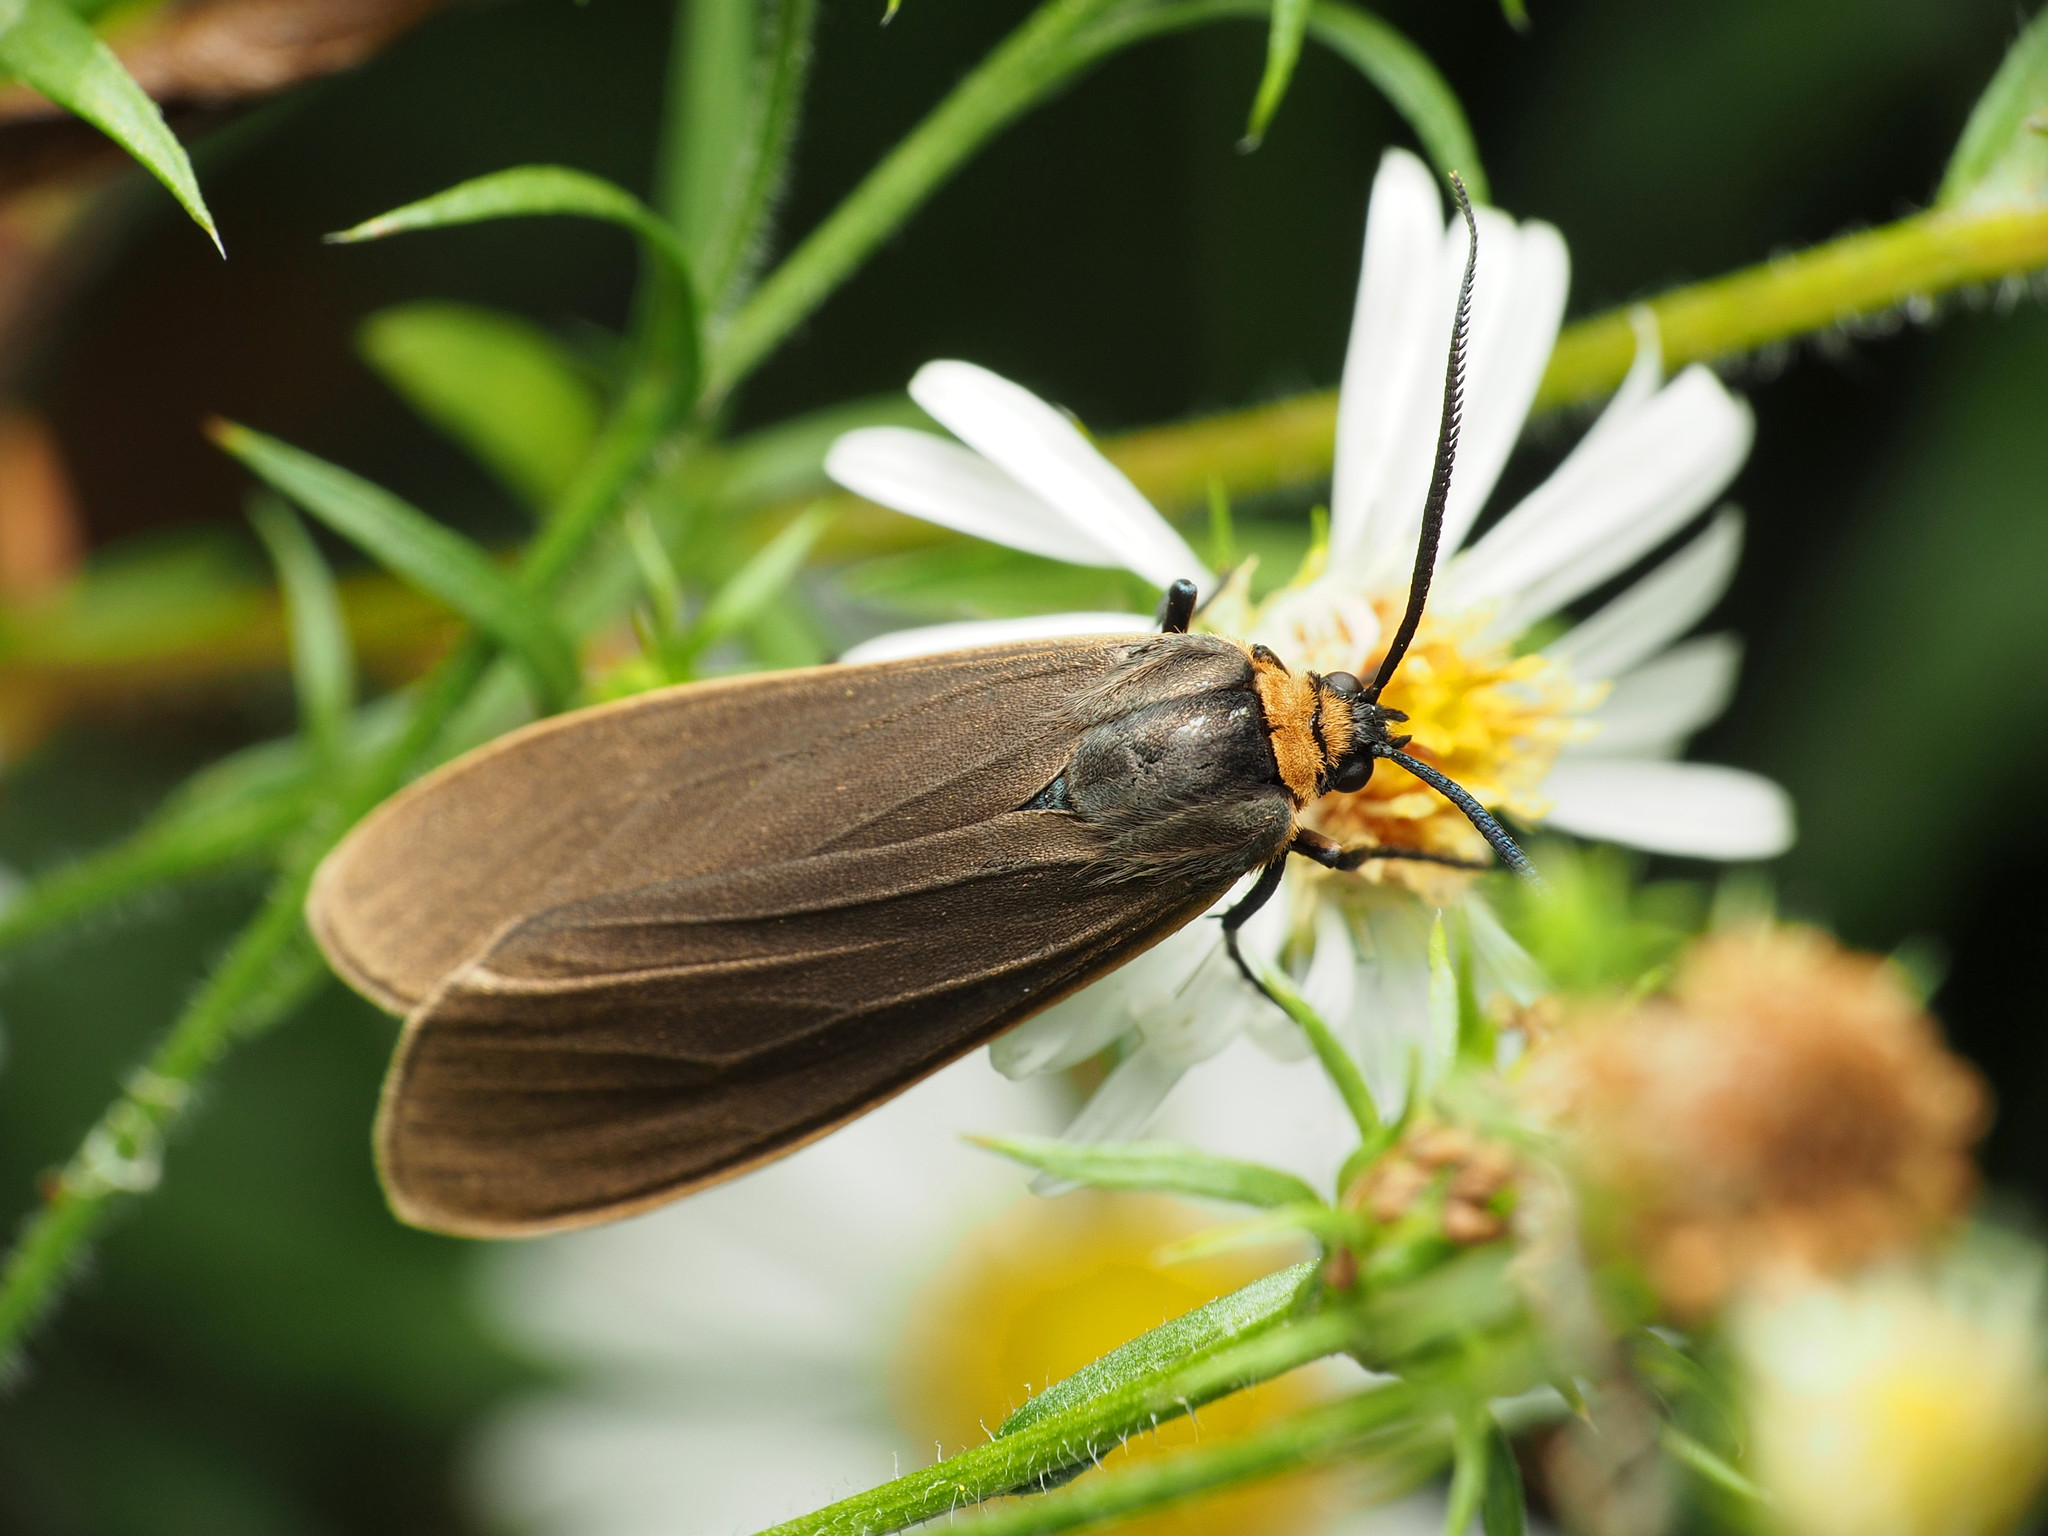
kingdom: Animalia
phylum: Arthropoda
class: Insecta
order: Lepidoptera
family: Erebidae
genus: Cisseps
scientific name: Cisseps fulvicollis
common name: Yellow-collared scape moth
